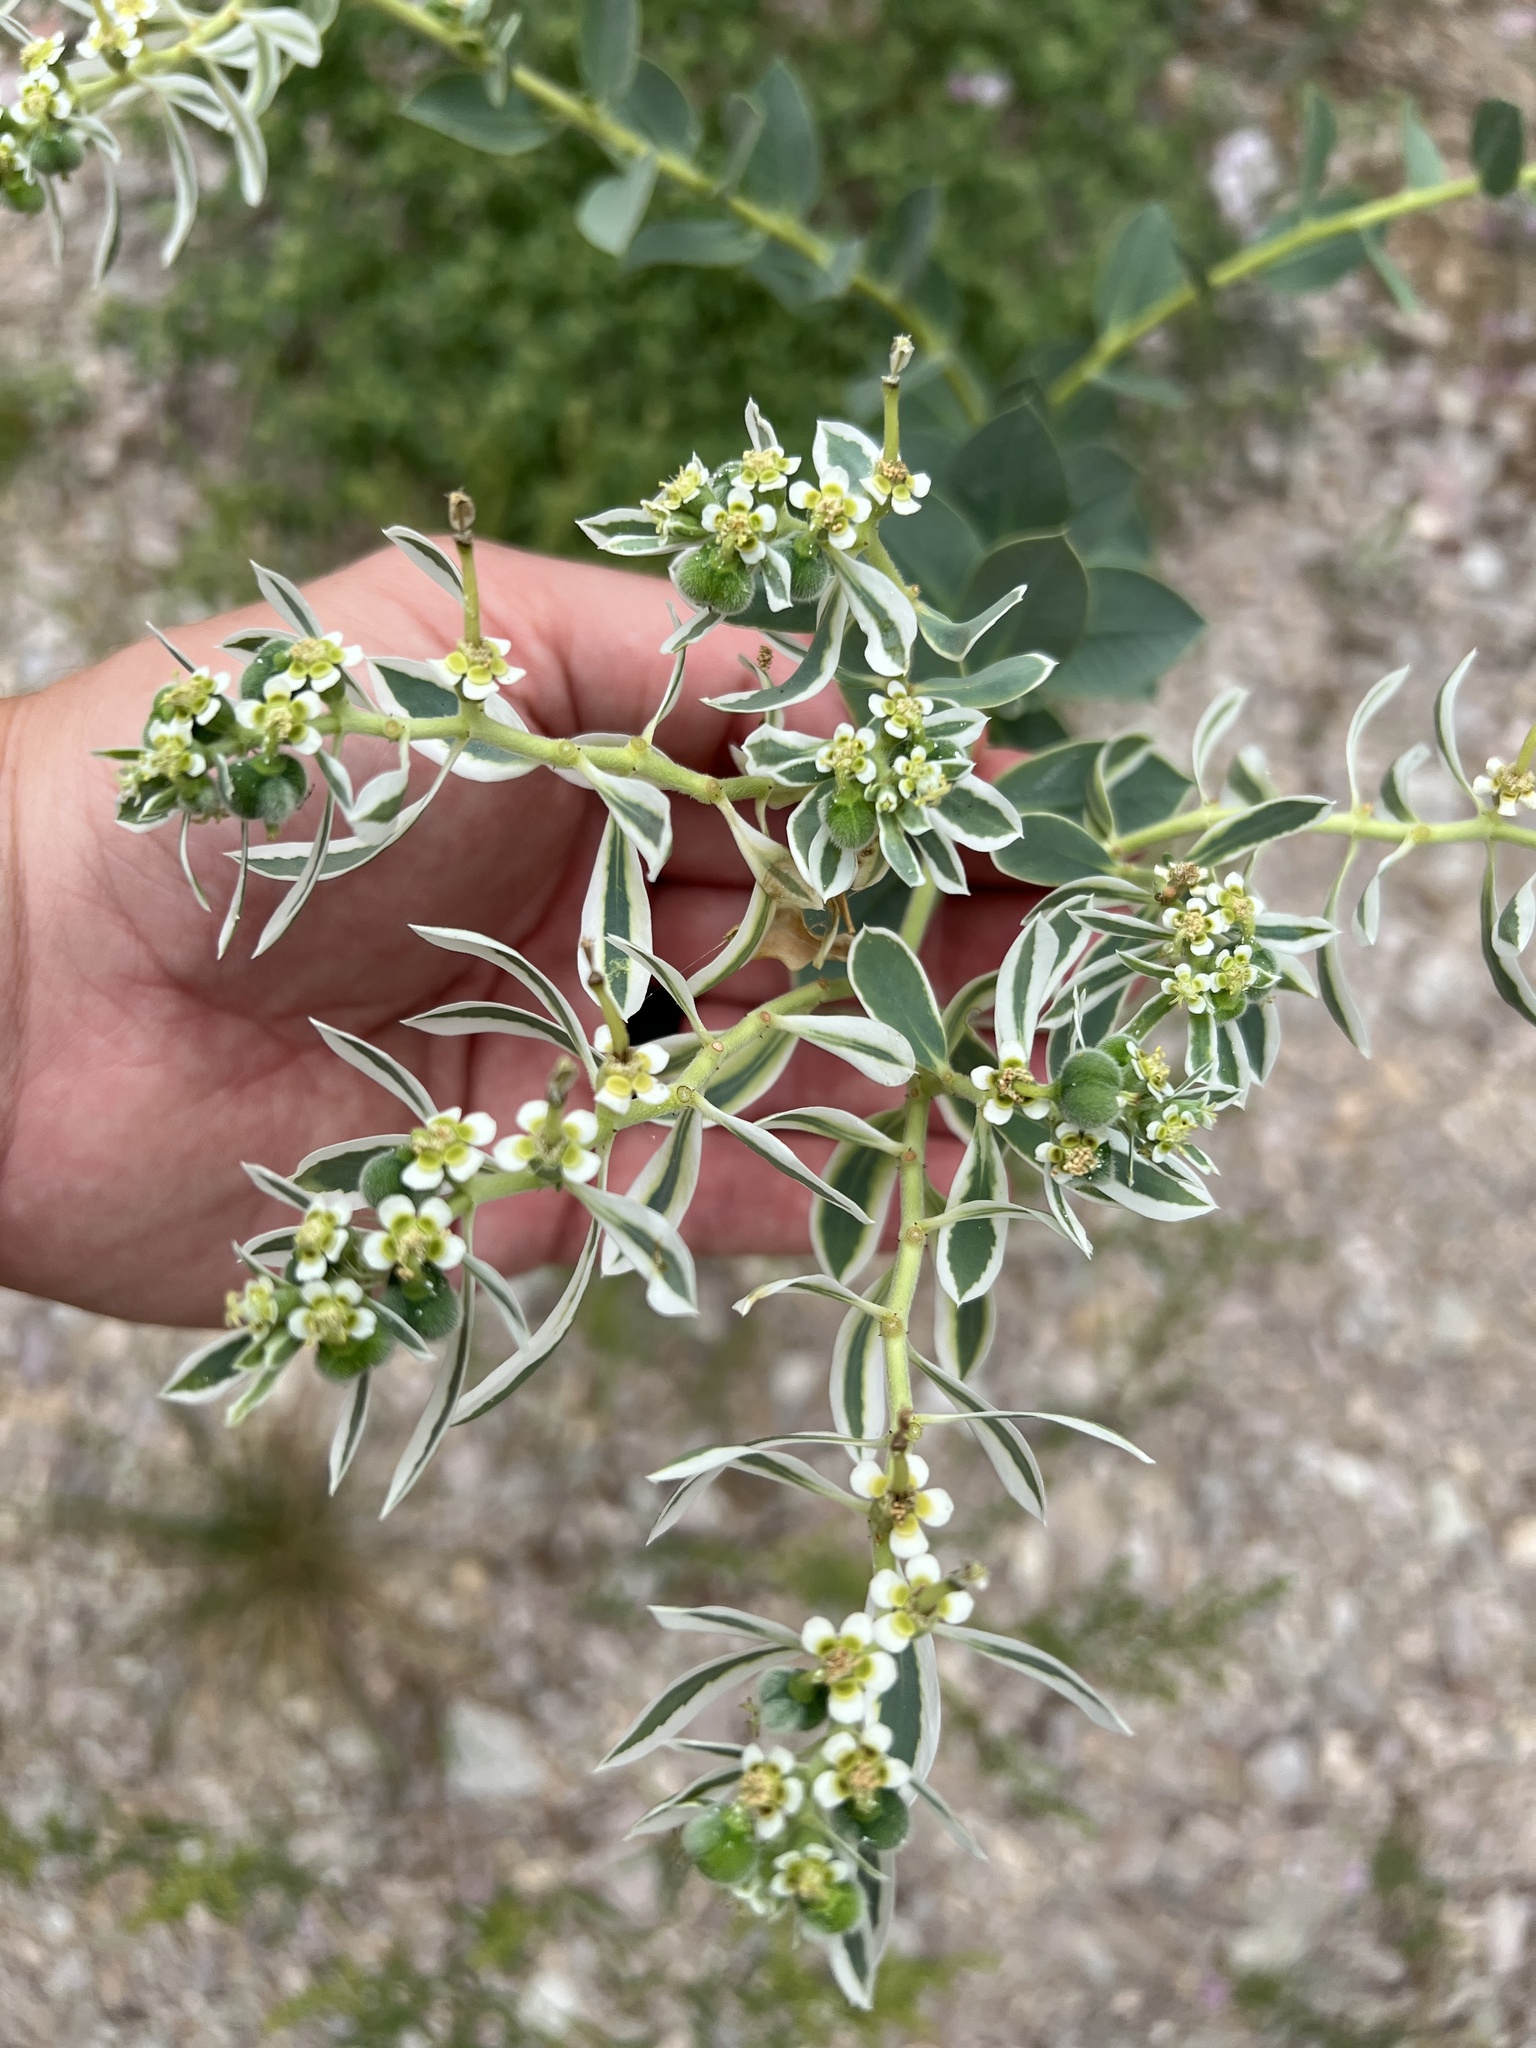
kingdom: Plantae
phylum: Tracheophyta
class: Magnoliopsida
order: Malpighiales
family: Euphorbiaceae
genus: Euphorbia
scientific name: Euphorbia marginata
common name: Ghostweed
